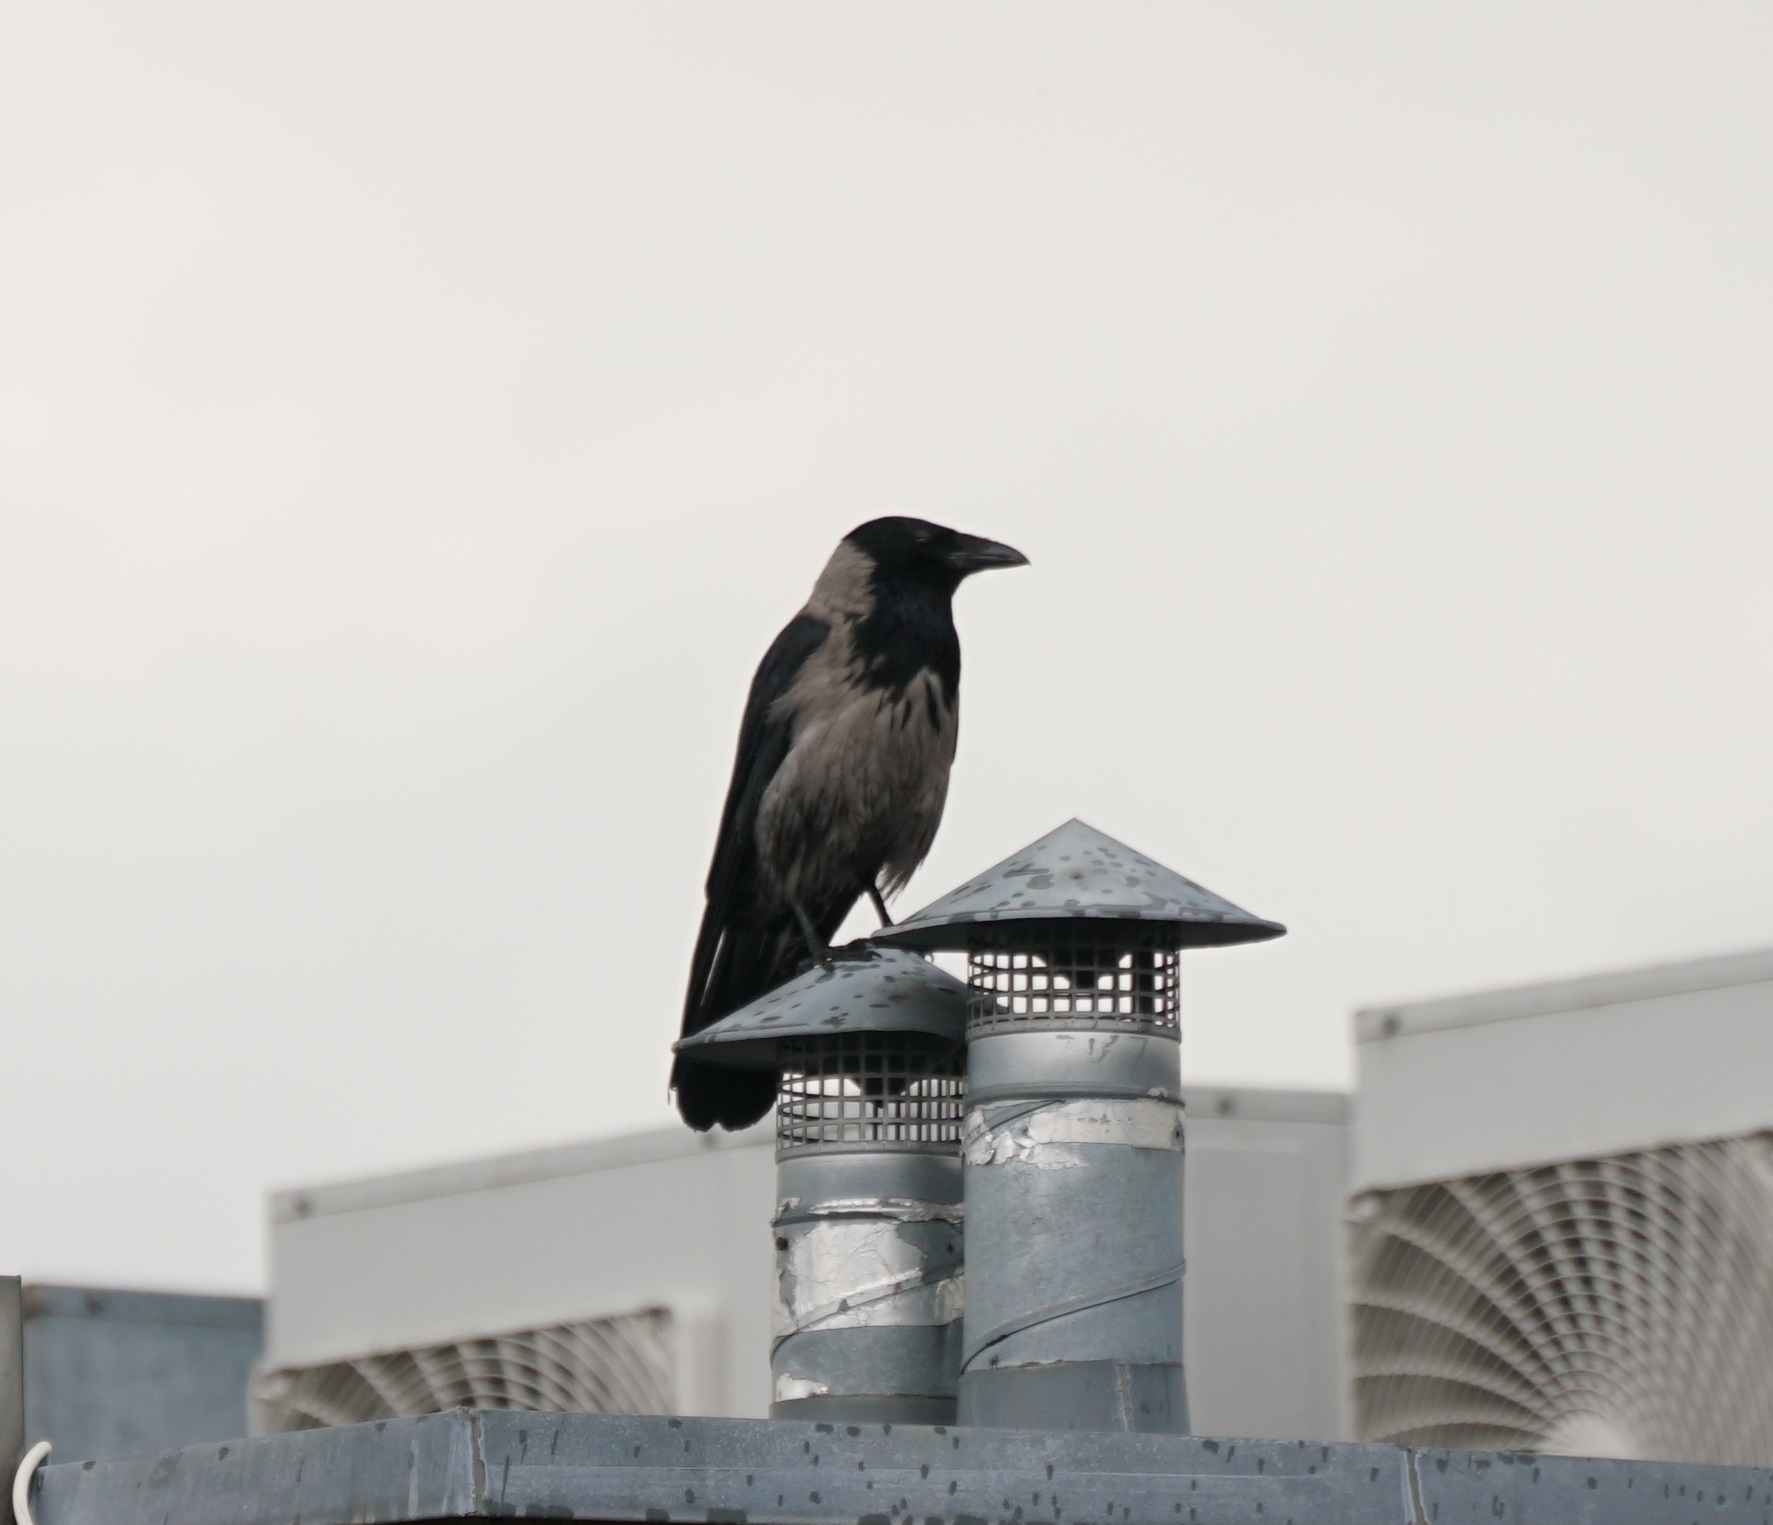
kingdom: Animalia
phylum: Chordata
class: Aves
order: Passeriformes
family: Corvidae
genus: Corvus
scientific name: Corvus
